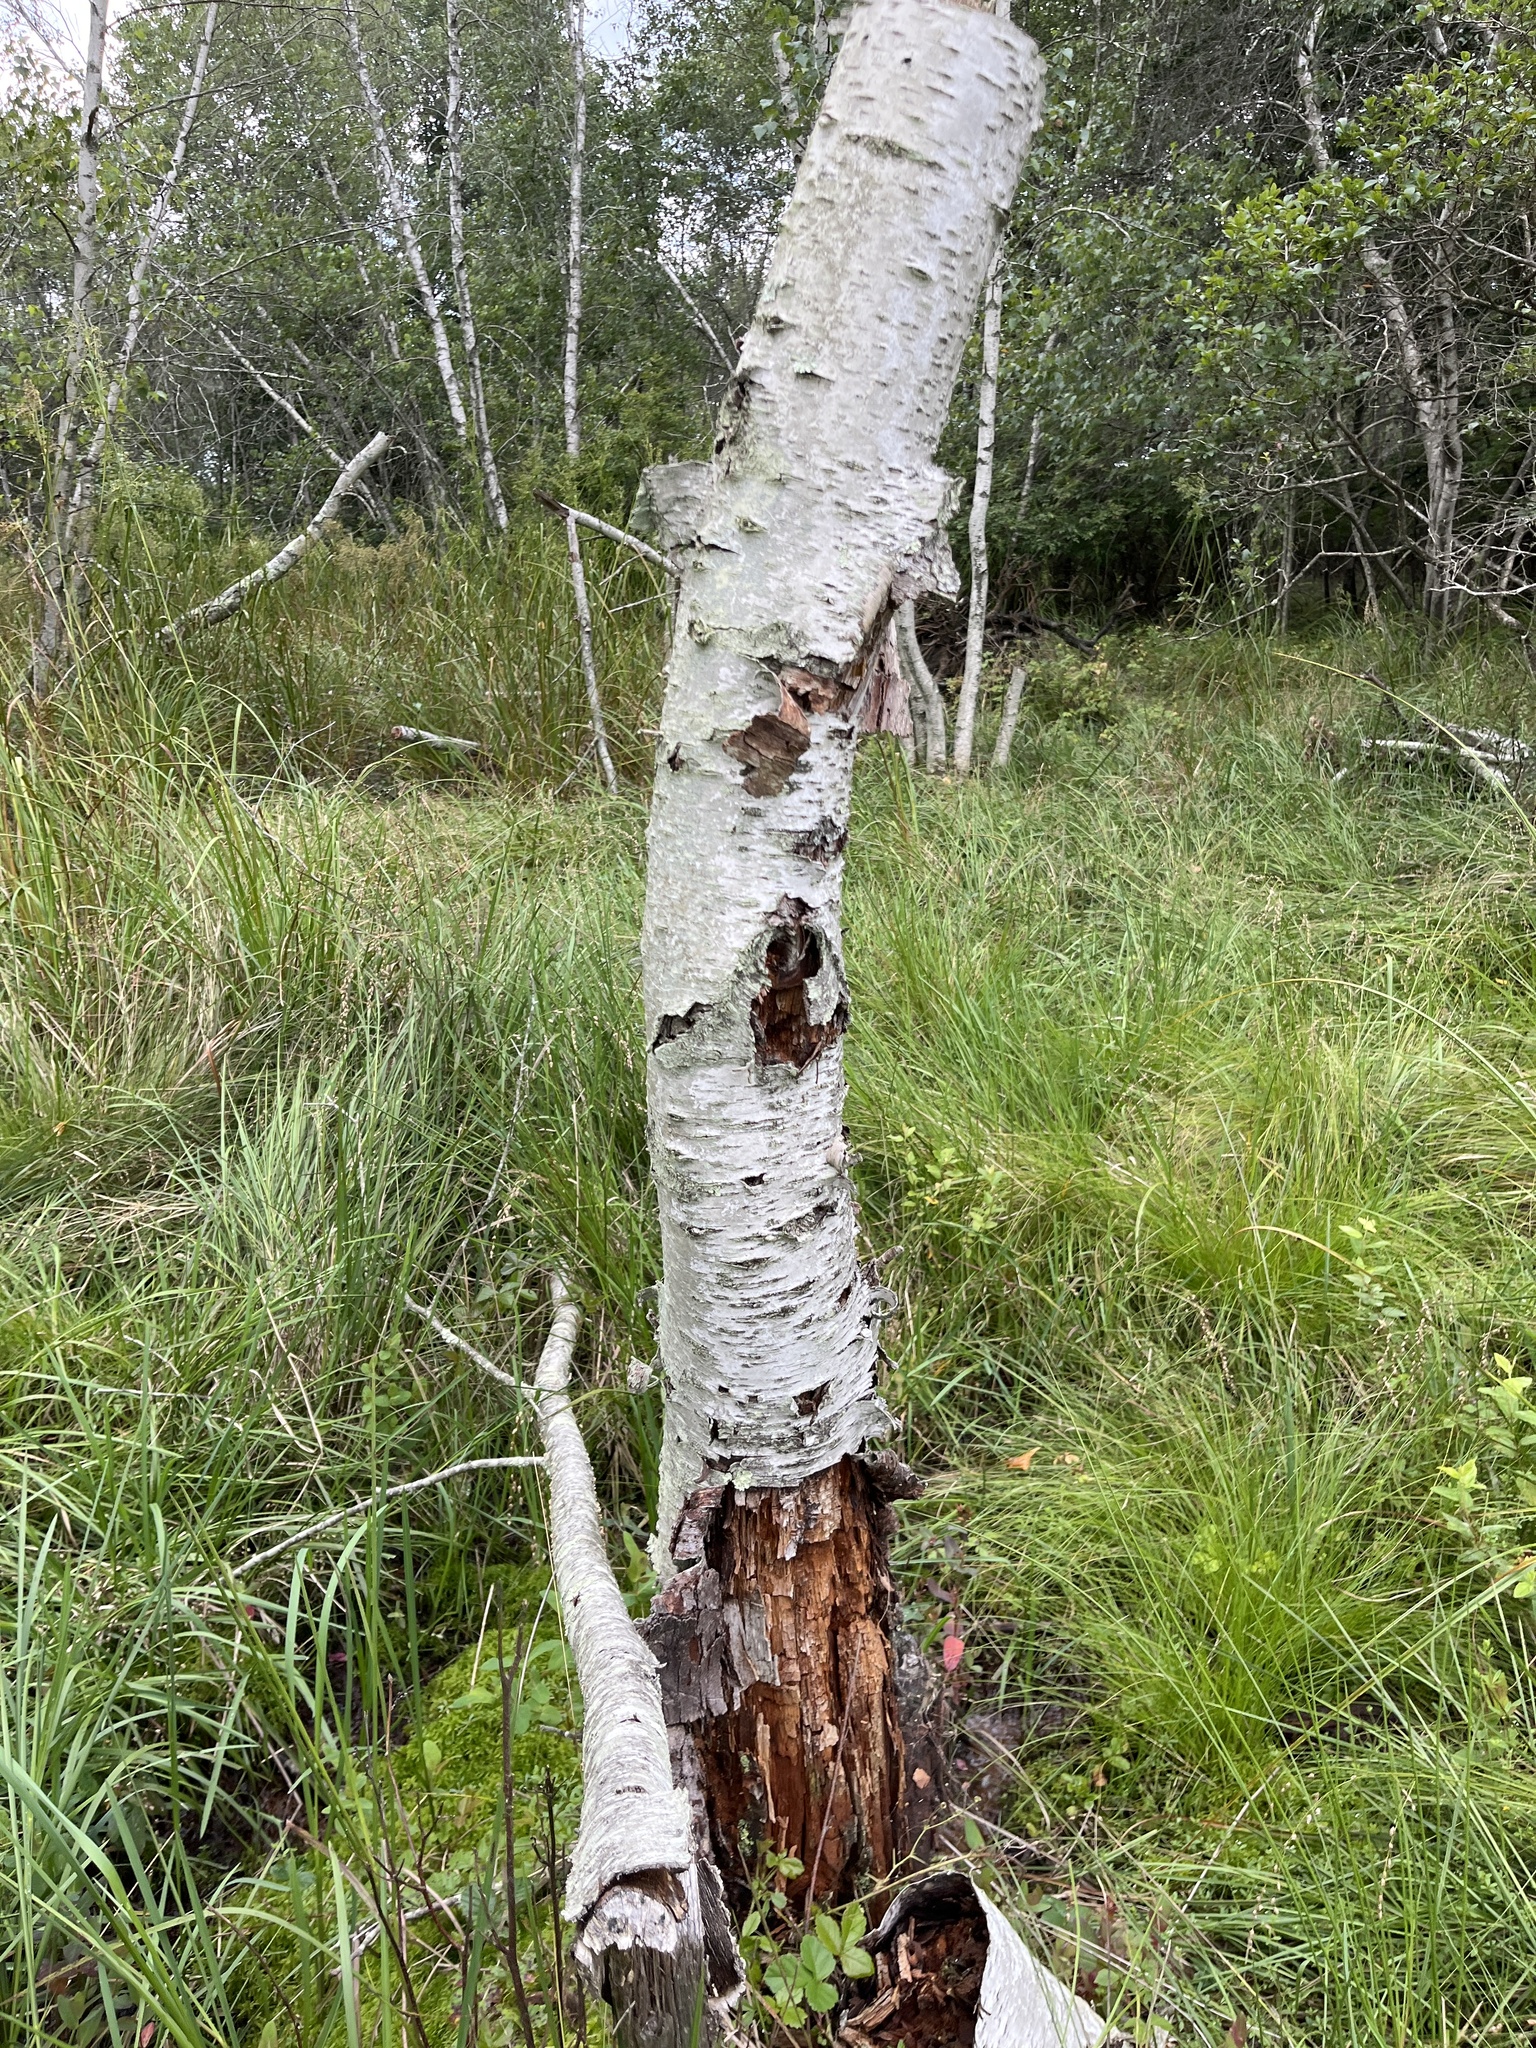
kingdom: Plantae
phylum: Tracheophyta
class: Magnoliopsida
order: Fagales
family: Betulaceae
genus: Betula
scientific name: Betula populifolia
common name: Fire birch
